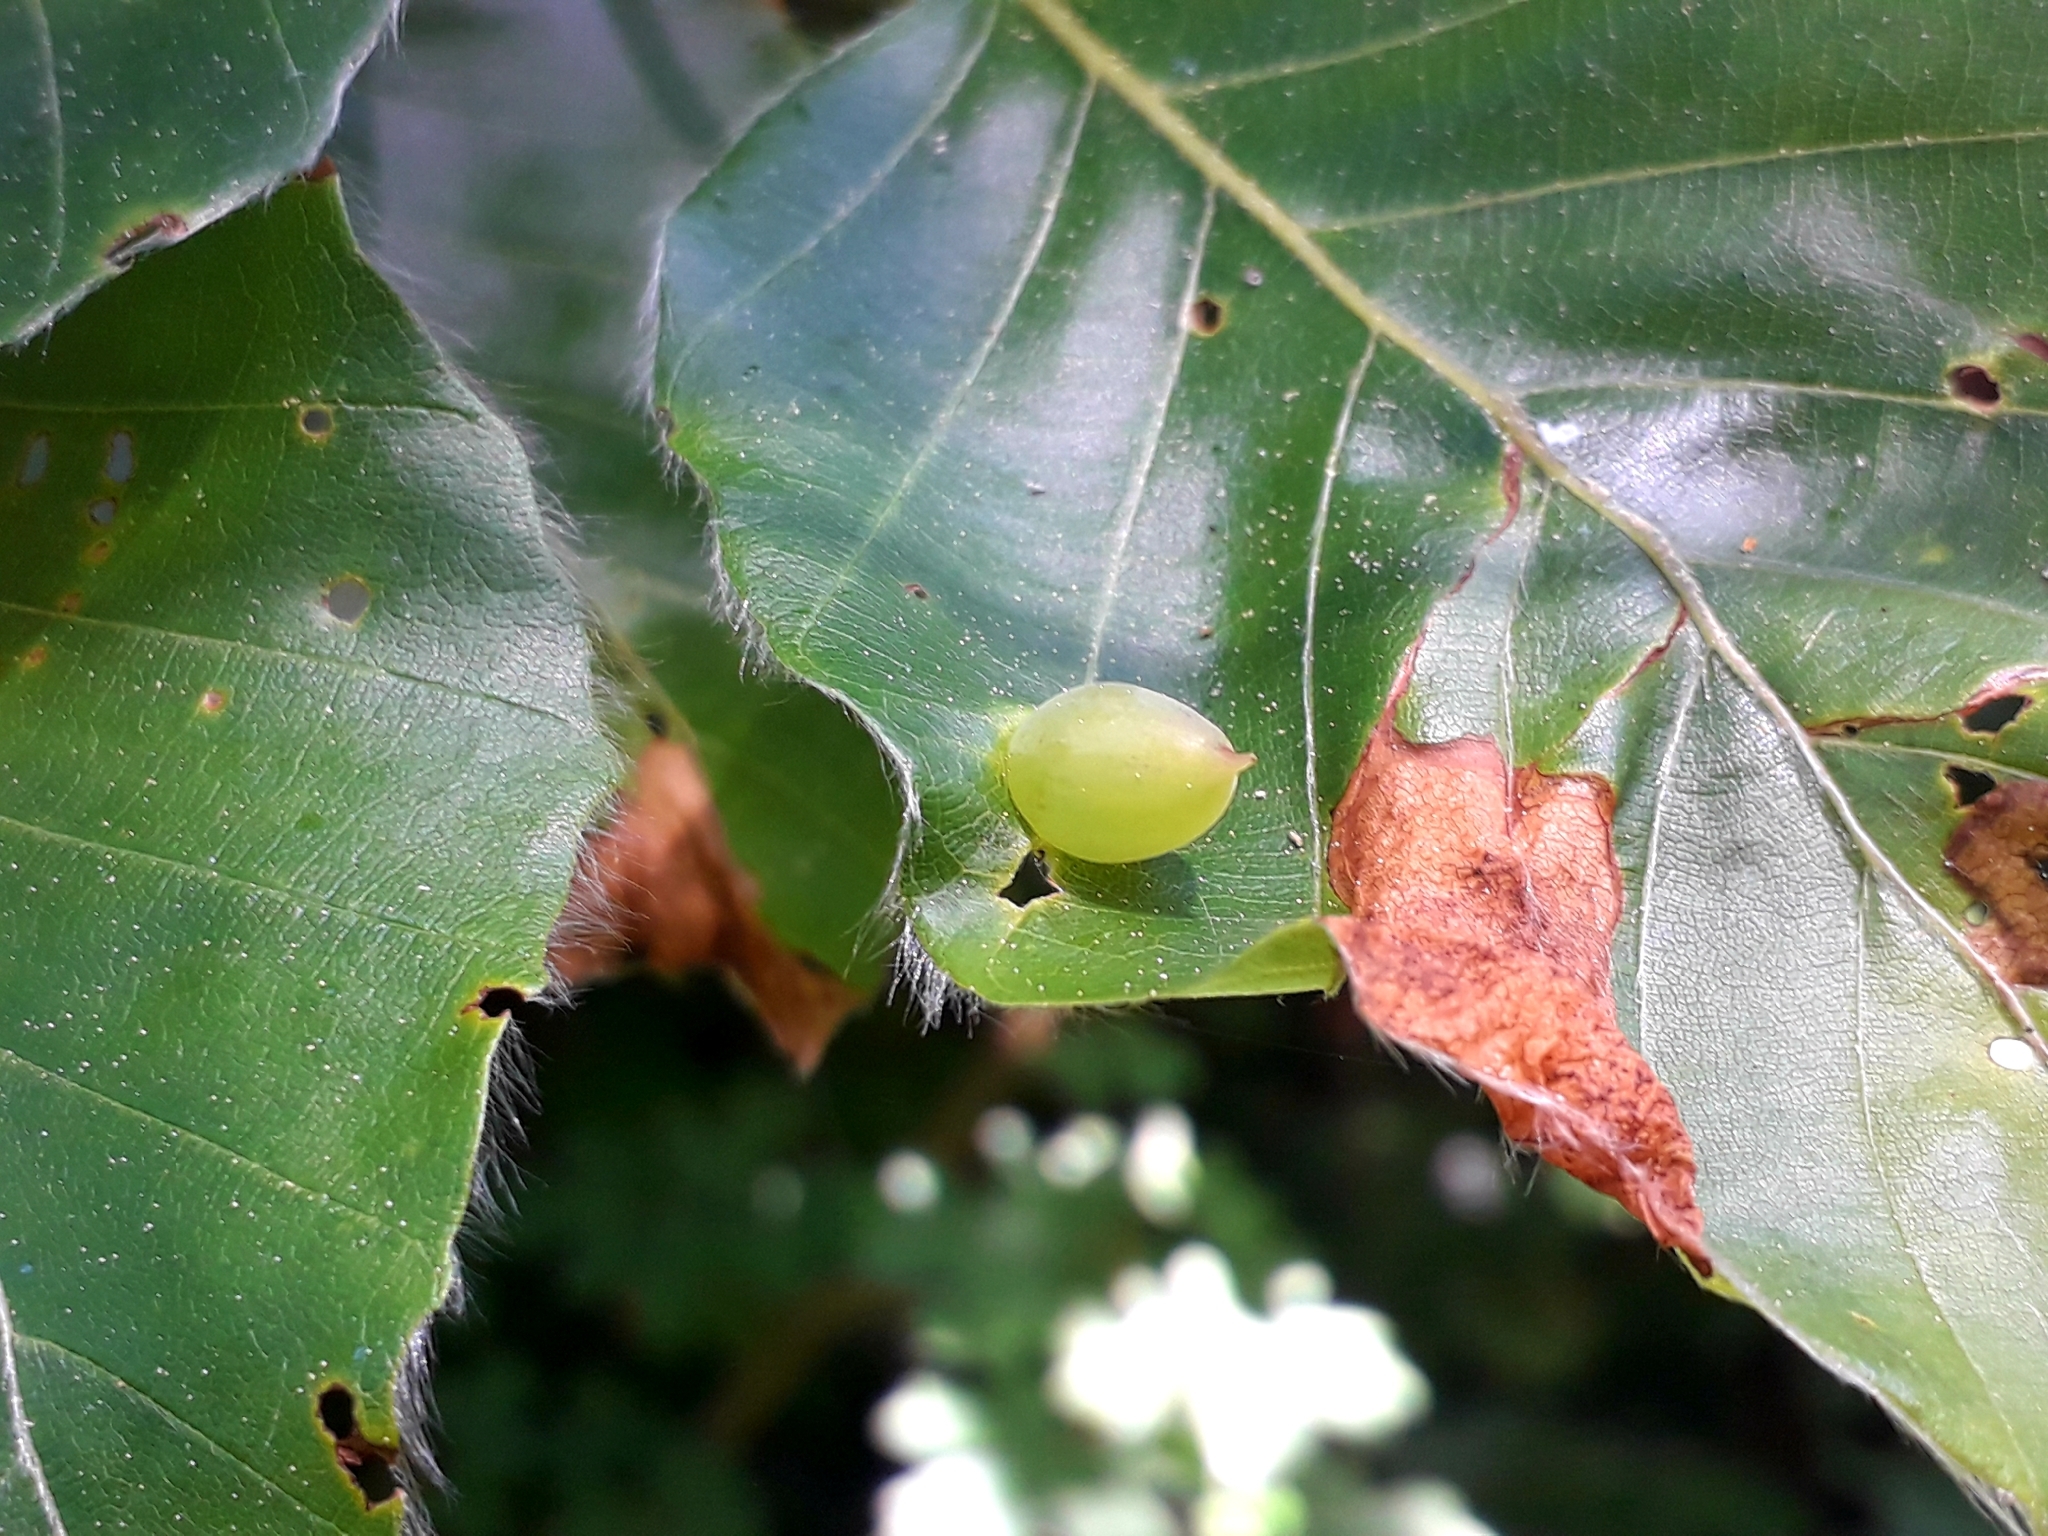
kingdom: Animalia
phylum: Arthropoda
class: Insecta
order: Diptera
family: Cecidomyiidae
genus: Mikiola
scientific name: Mikiola fagi
